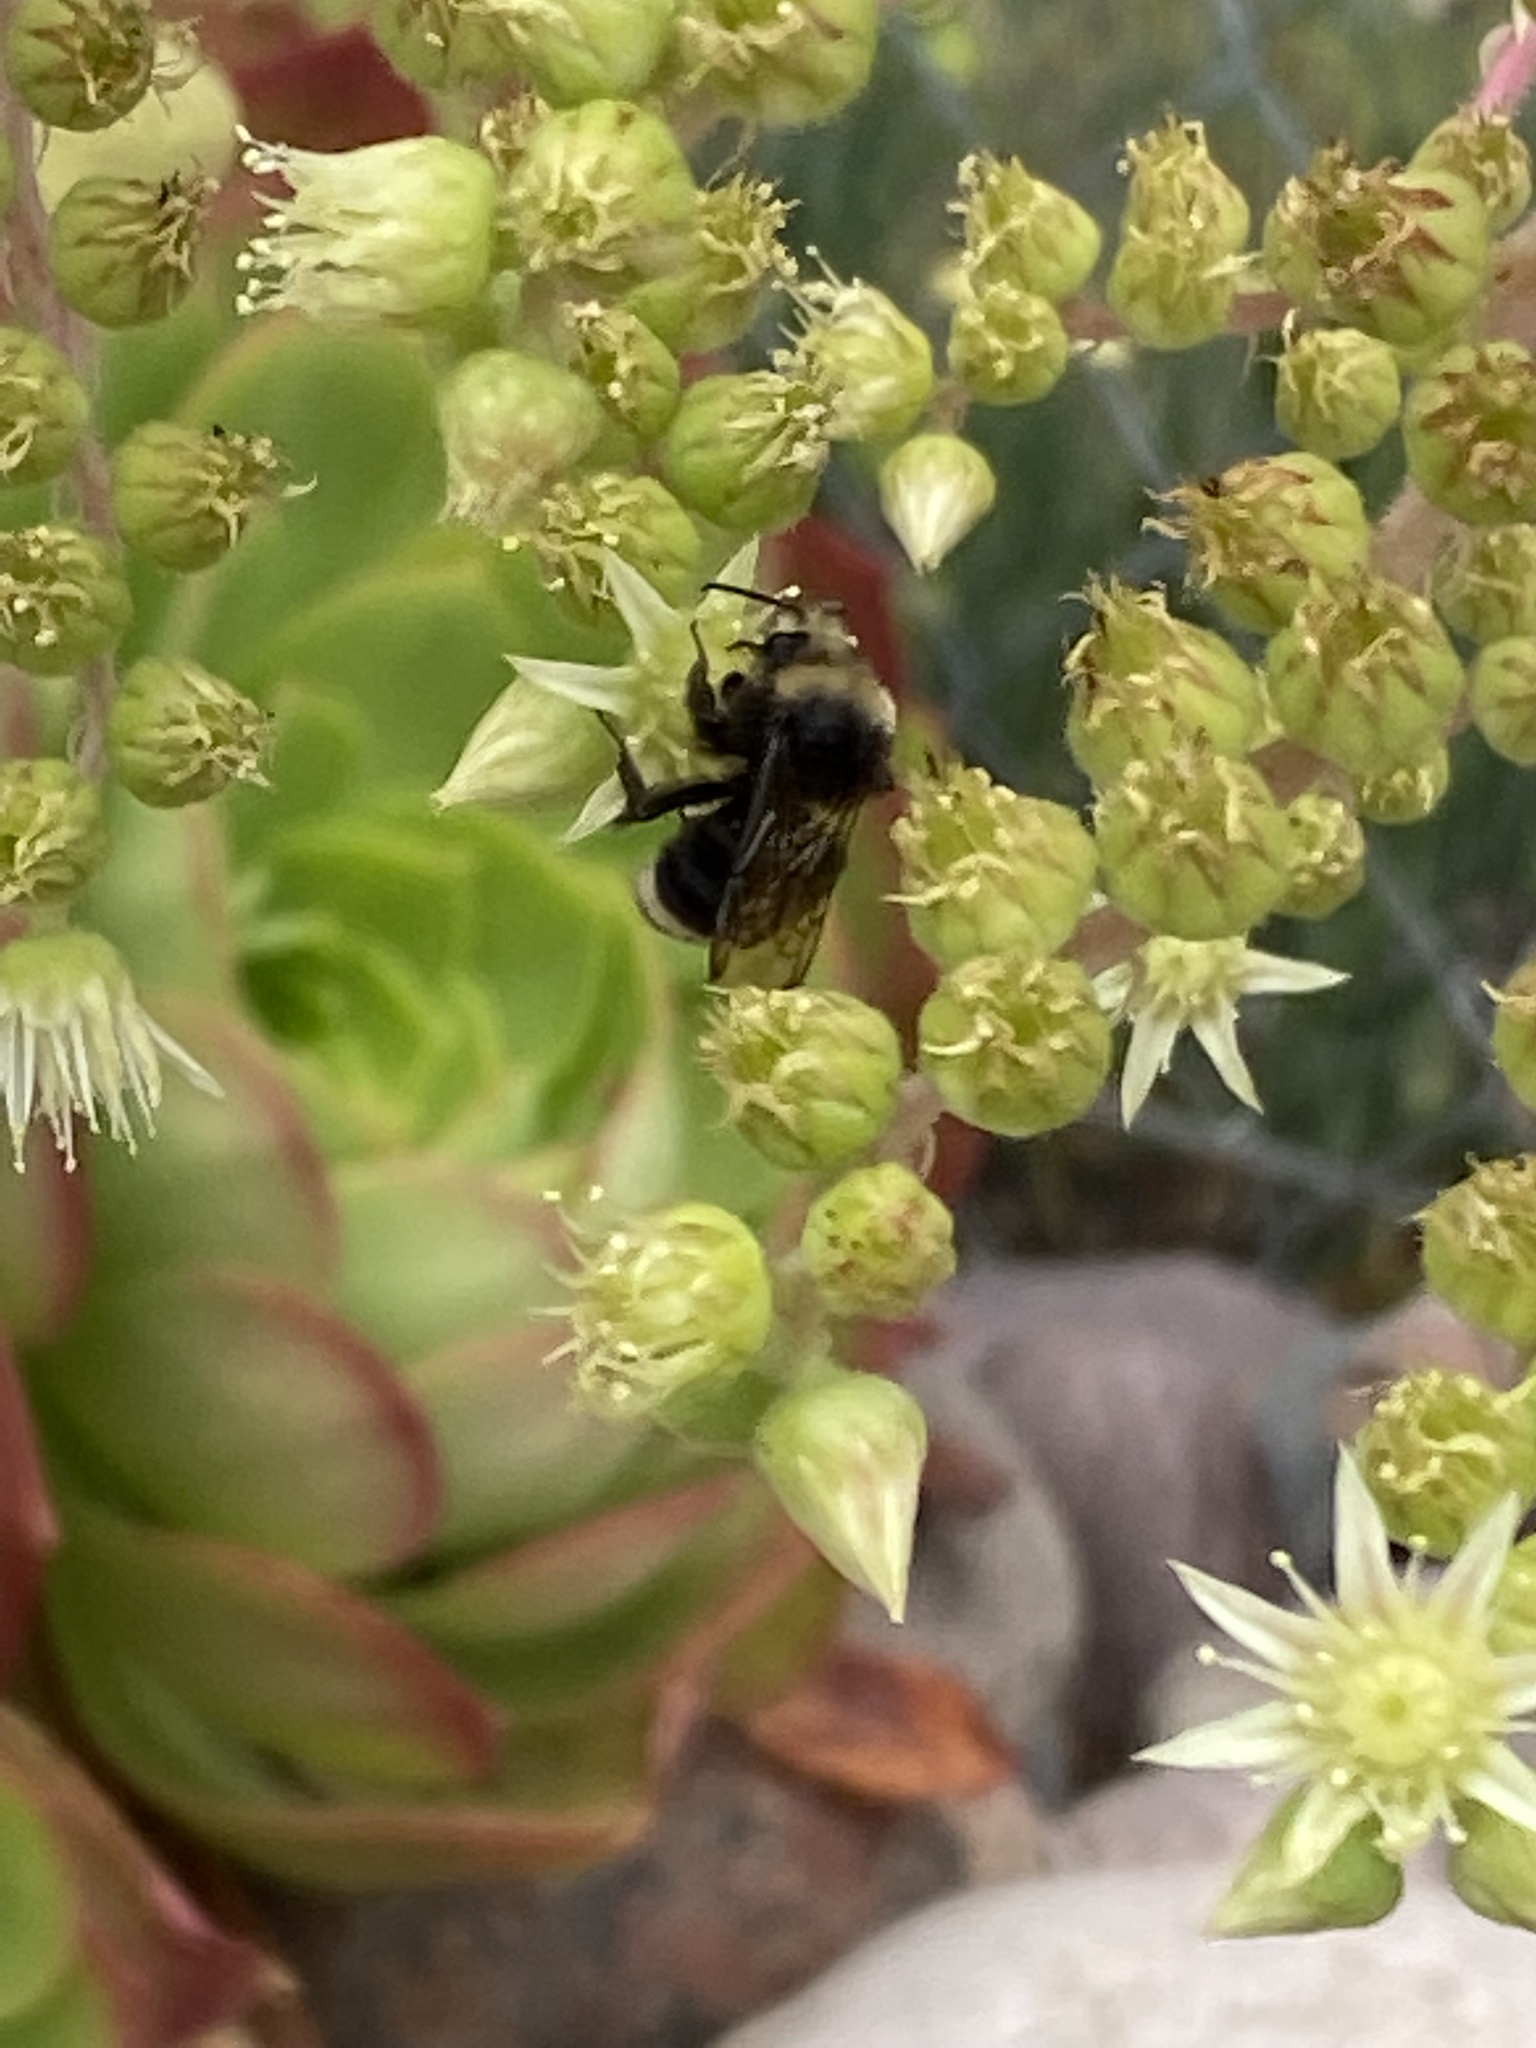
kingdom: Animalia
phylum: Arthropoda
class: Insecta
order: Hymenoptera
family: Apidae
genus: Bombus
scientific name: Bombus vosnesenskii
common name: Vosnesensky bumble bee
